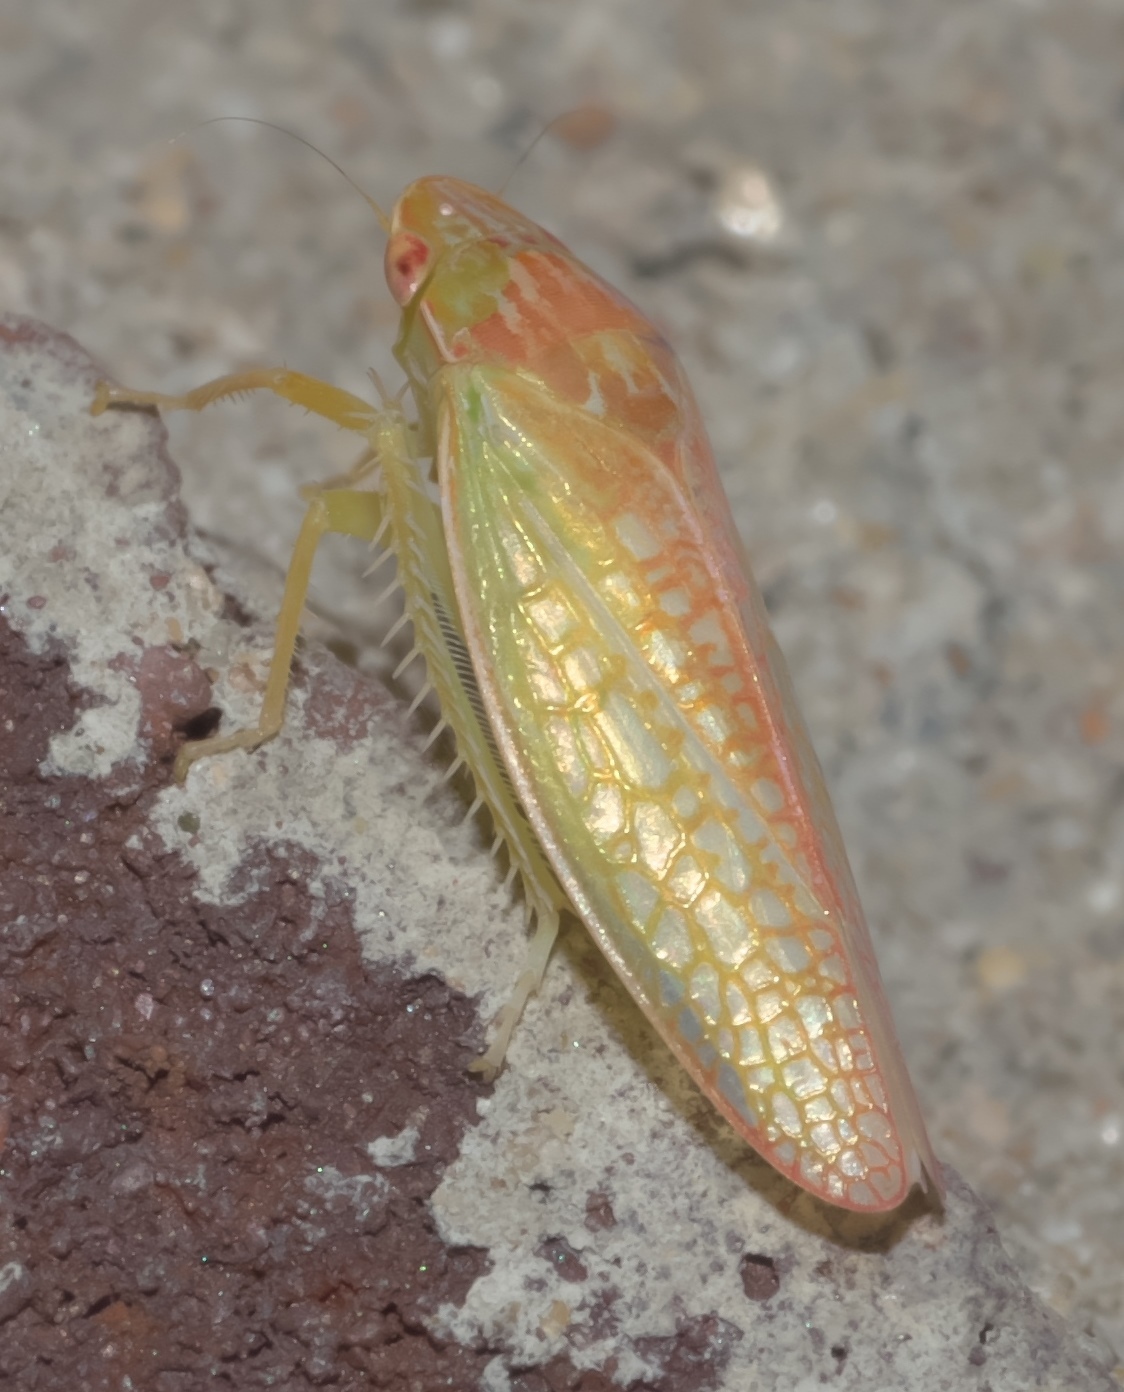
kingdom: Animalia
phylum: Arthropoda
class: Insecta
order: Hemiptera
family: Cicadellidae
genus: Gyponana
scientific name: Gyponana octolineata
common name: Eight-lined leafhopper
